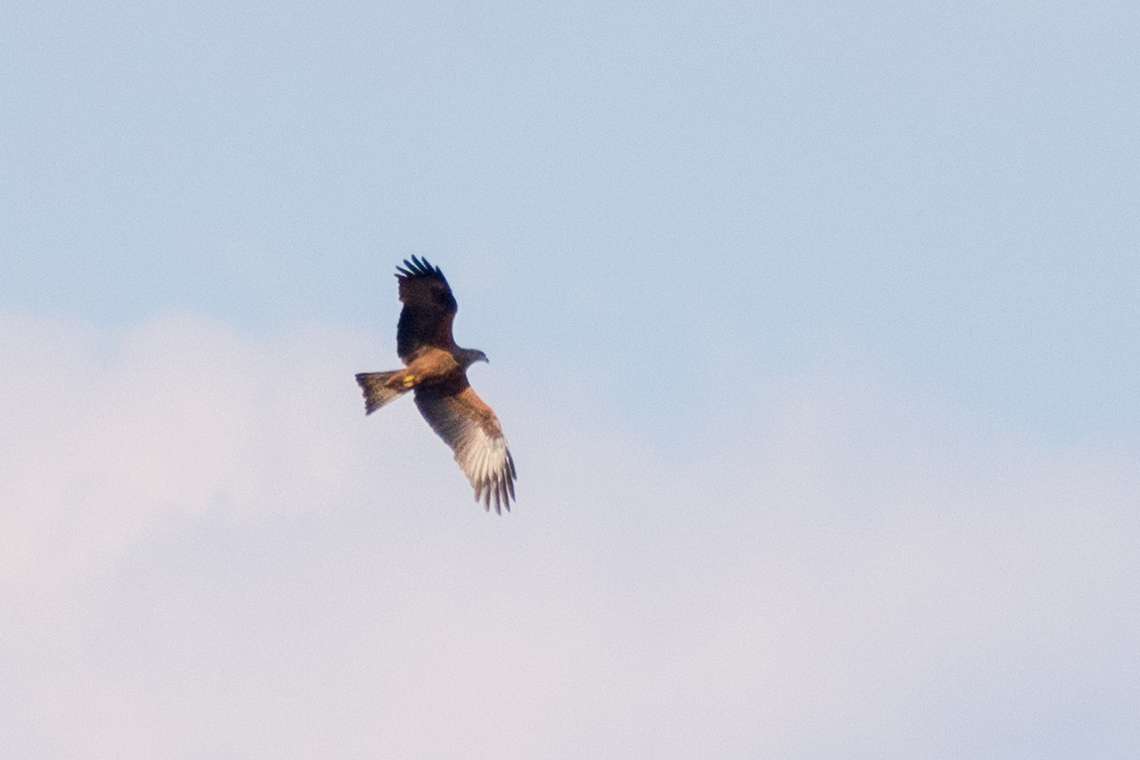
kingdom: Animalia
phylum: Chordata
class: Aves
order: Accipitriformes
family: Accipitridae
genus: Milvus
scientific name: Milvus migrans
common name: Black kite
